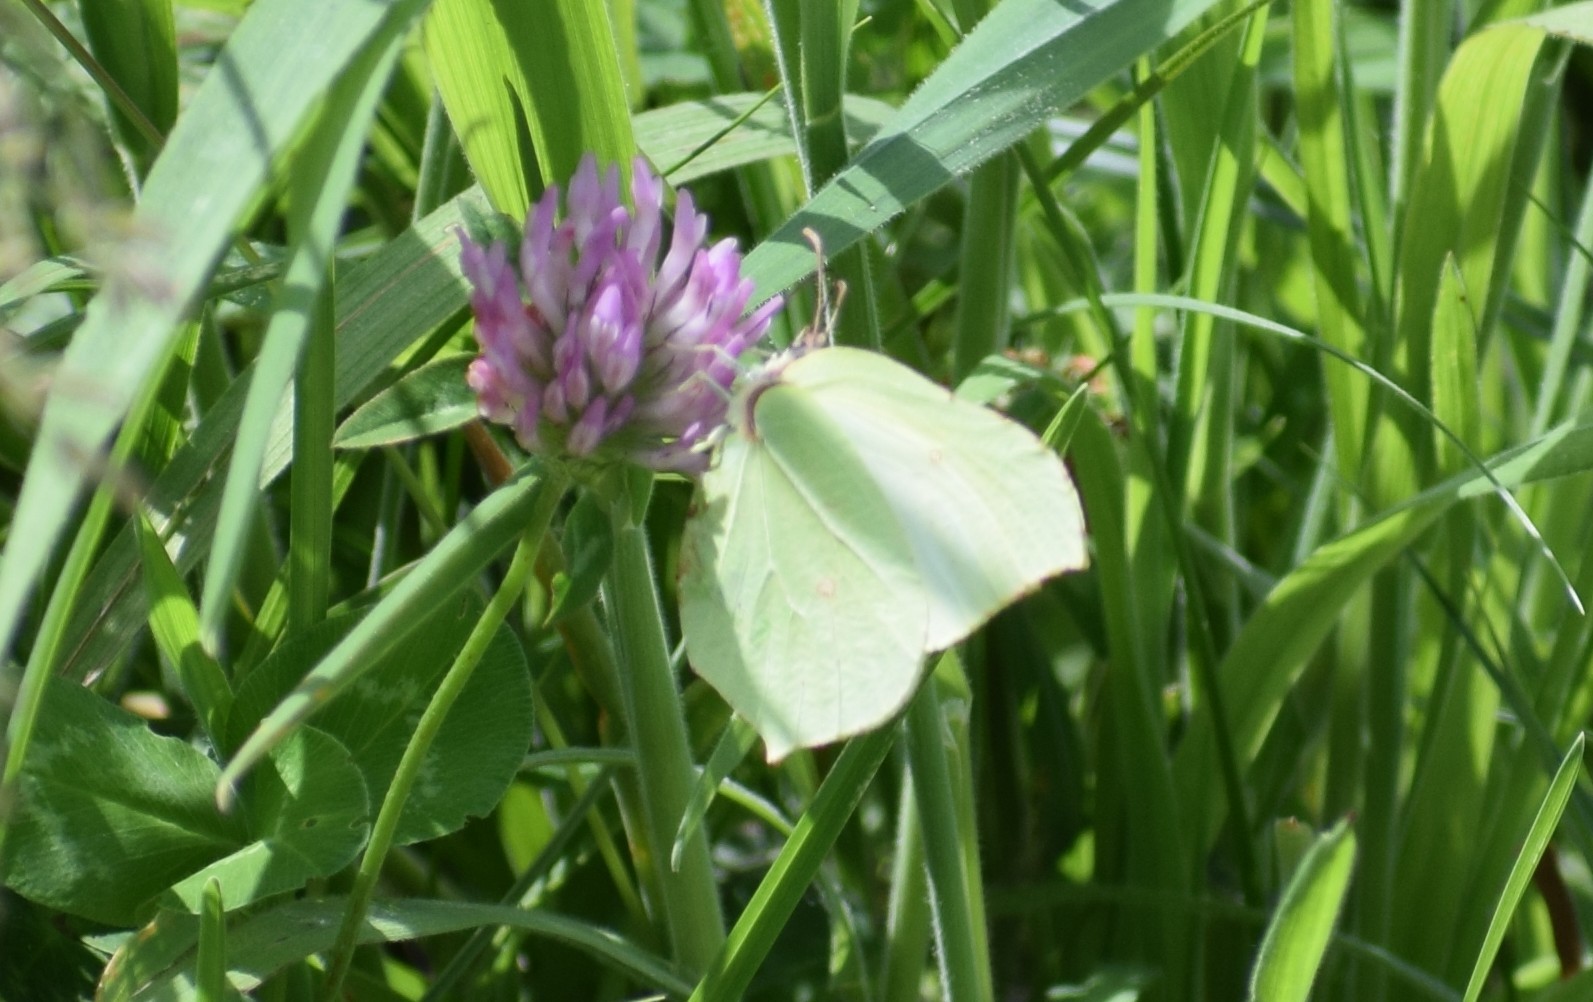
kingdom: Animalia
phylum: Arthropoda
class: Insecta
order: Lepidoptera
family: Pieridae
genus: Gonepteryx
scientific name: Gonepteryx rhamni
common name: Brimstone
